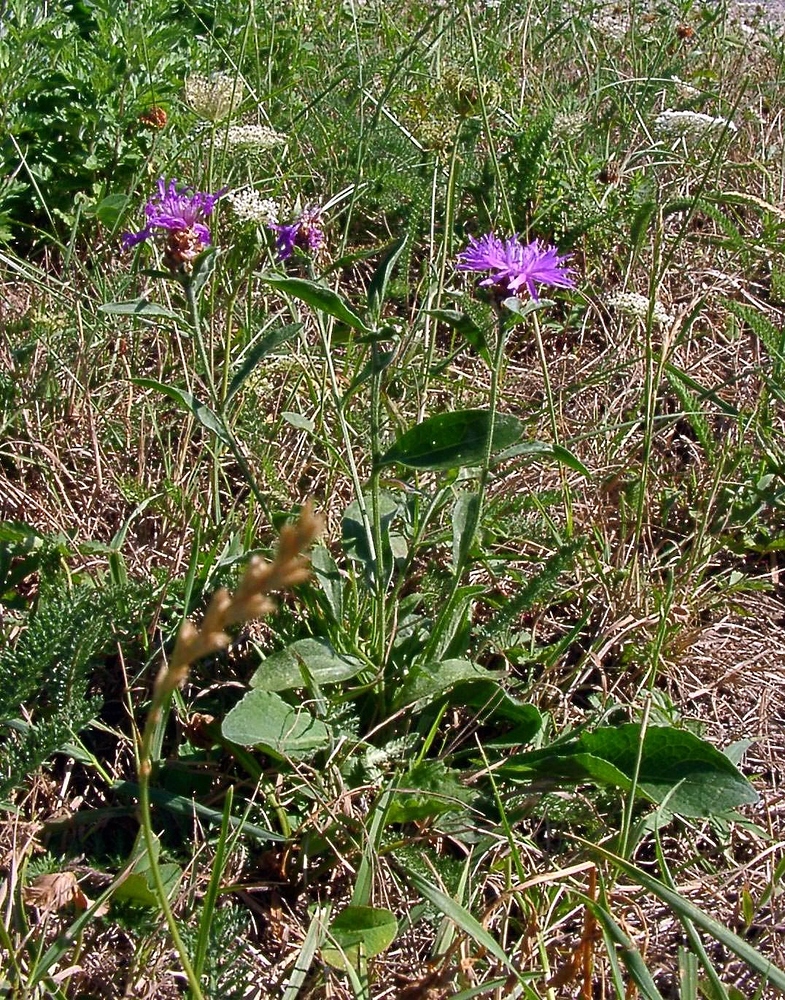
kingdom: Plantae
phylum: Tracheophyta
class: Magnoliopsida
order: Asterales
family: Asteraceae
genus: Centaurea
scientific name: Centaurea jacea
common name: Brown knapweed
